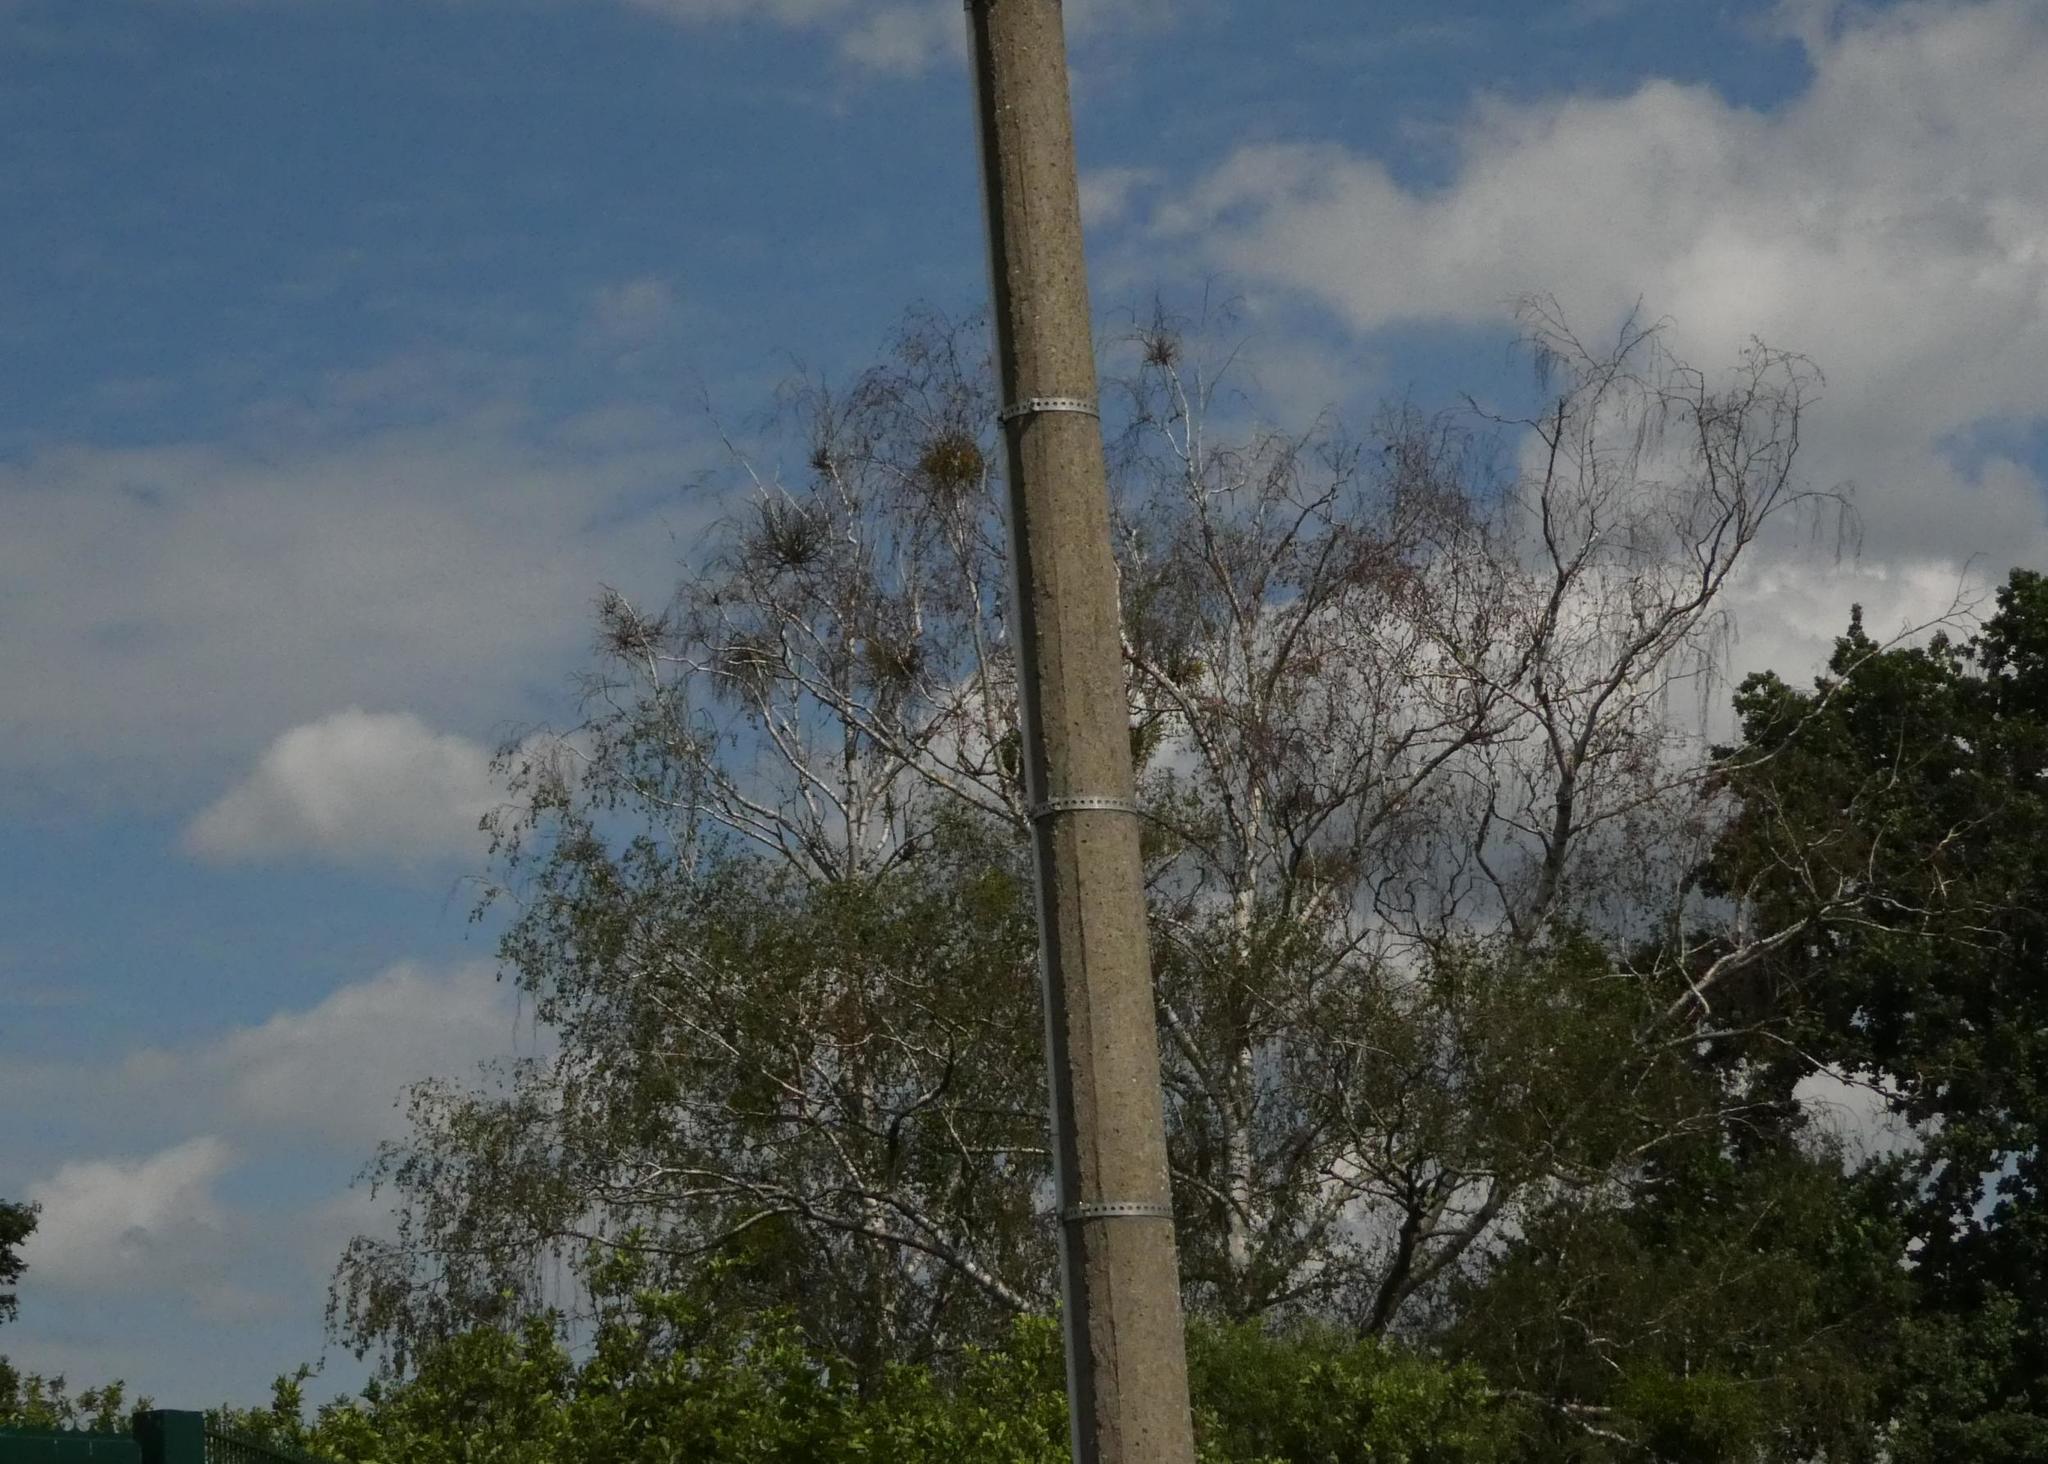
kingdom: Plantae
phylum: Tracheophyta
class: Magnoliopsida
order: Santalales
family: Viscaceae
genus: Viscum
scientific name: Viscum album
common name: Mistletoe
